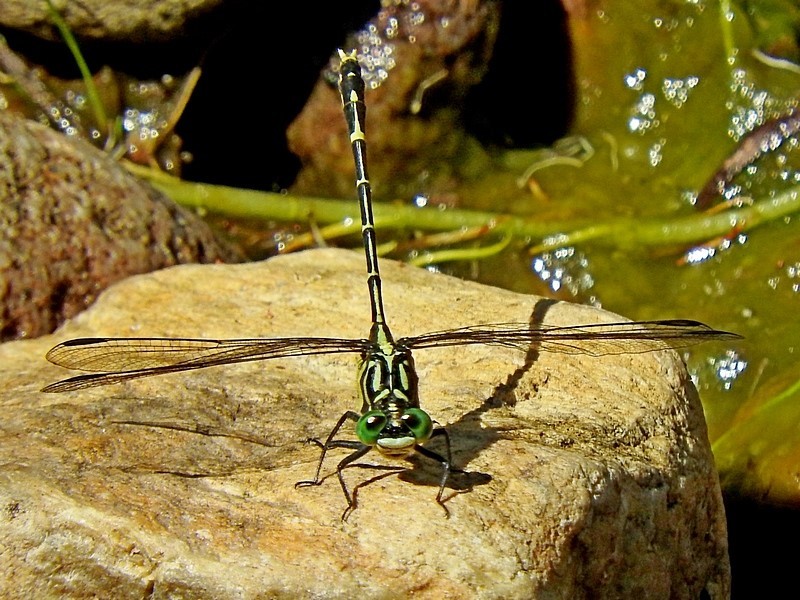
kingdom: Animalia
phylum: Arthropoda
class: Insecta
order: Odonata
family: Gomphidae
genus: Austrogomphus
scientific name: Austrogomphus ochraceus
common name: Jade hunter
